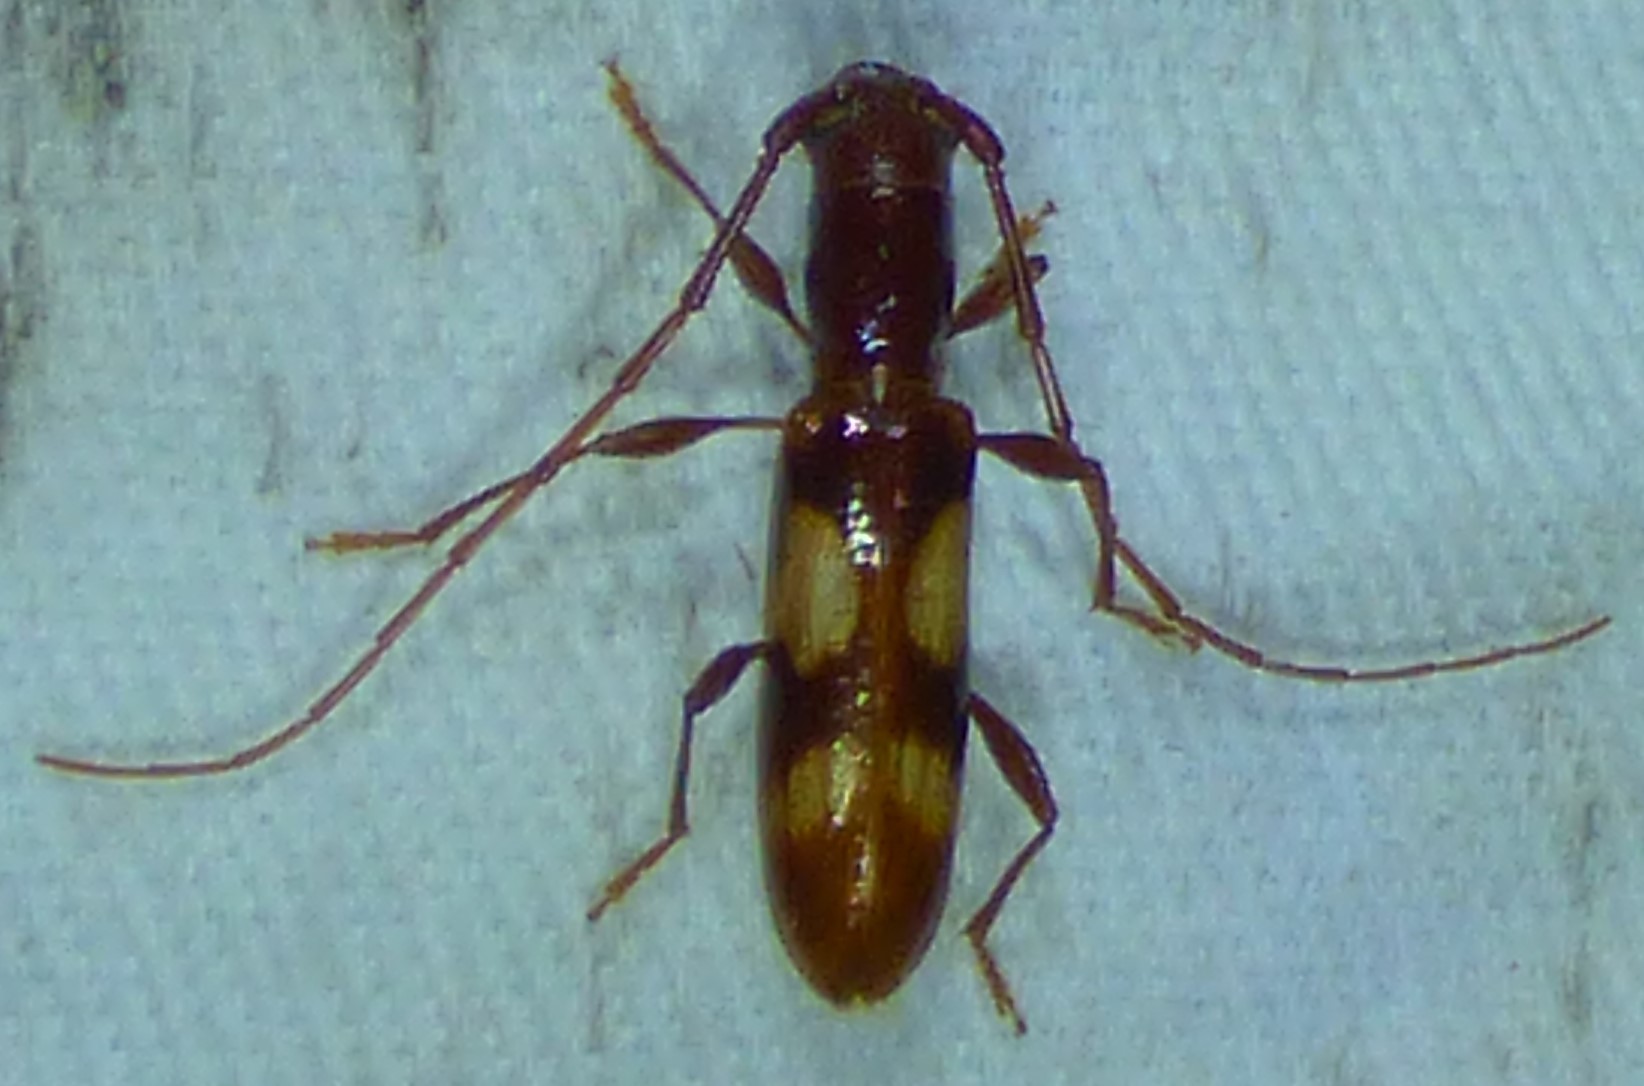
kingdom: Animalia
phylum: Arthropoda
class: Insecta
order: Coleoptera
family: Cerambycidae
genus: Heterachthes
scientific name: Heterachthes quadrimaculatus
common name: Four-spotted hickory borer
